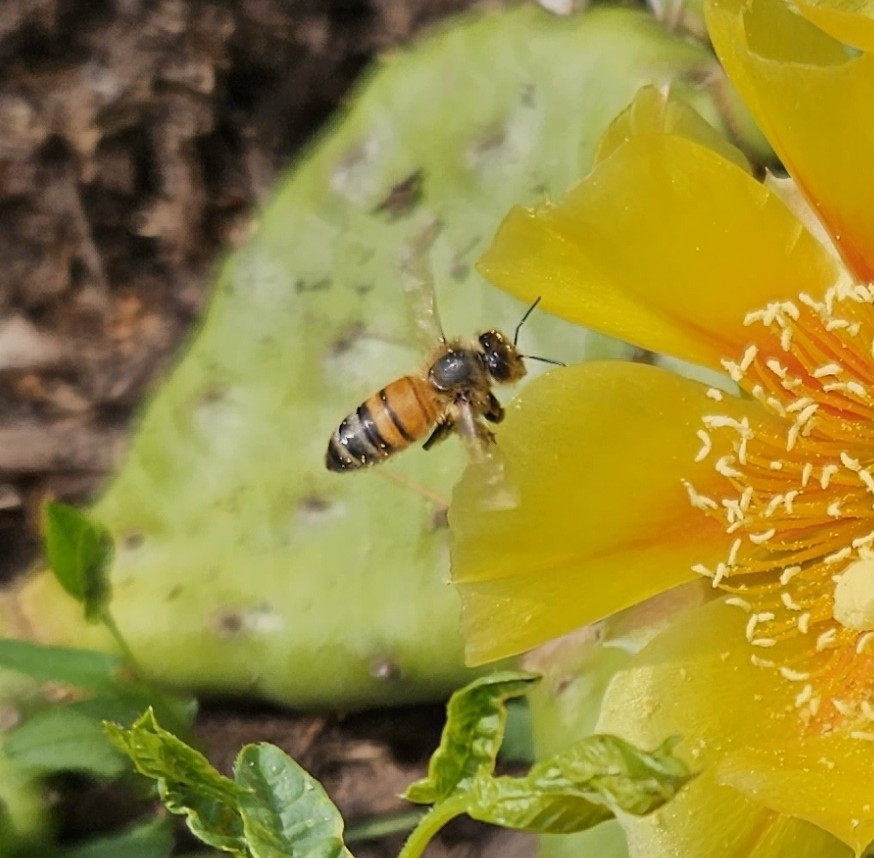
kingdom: Animalia
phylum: Arthropoda
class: Insecta
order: Hymenoptera
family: Apidae
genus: Apis
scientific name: Apis mellifera
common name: Honey bee
